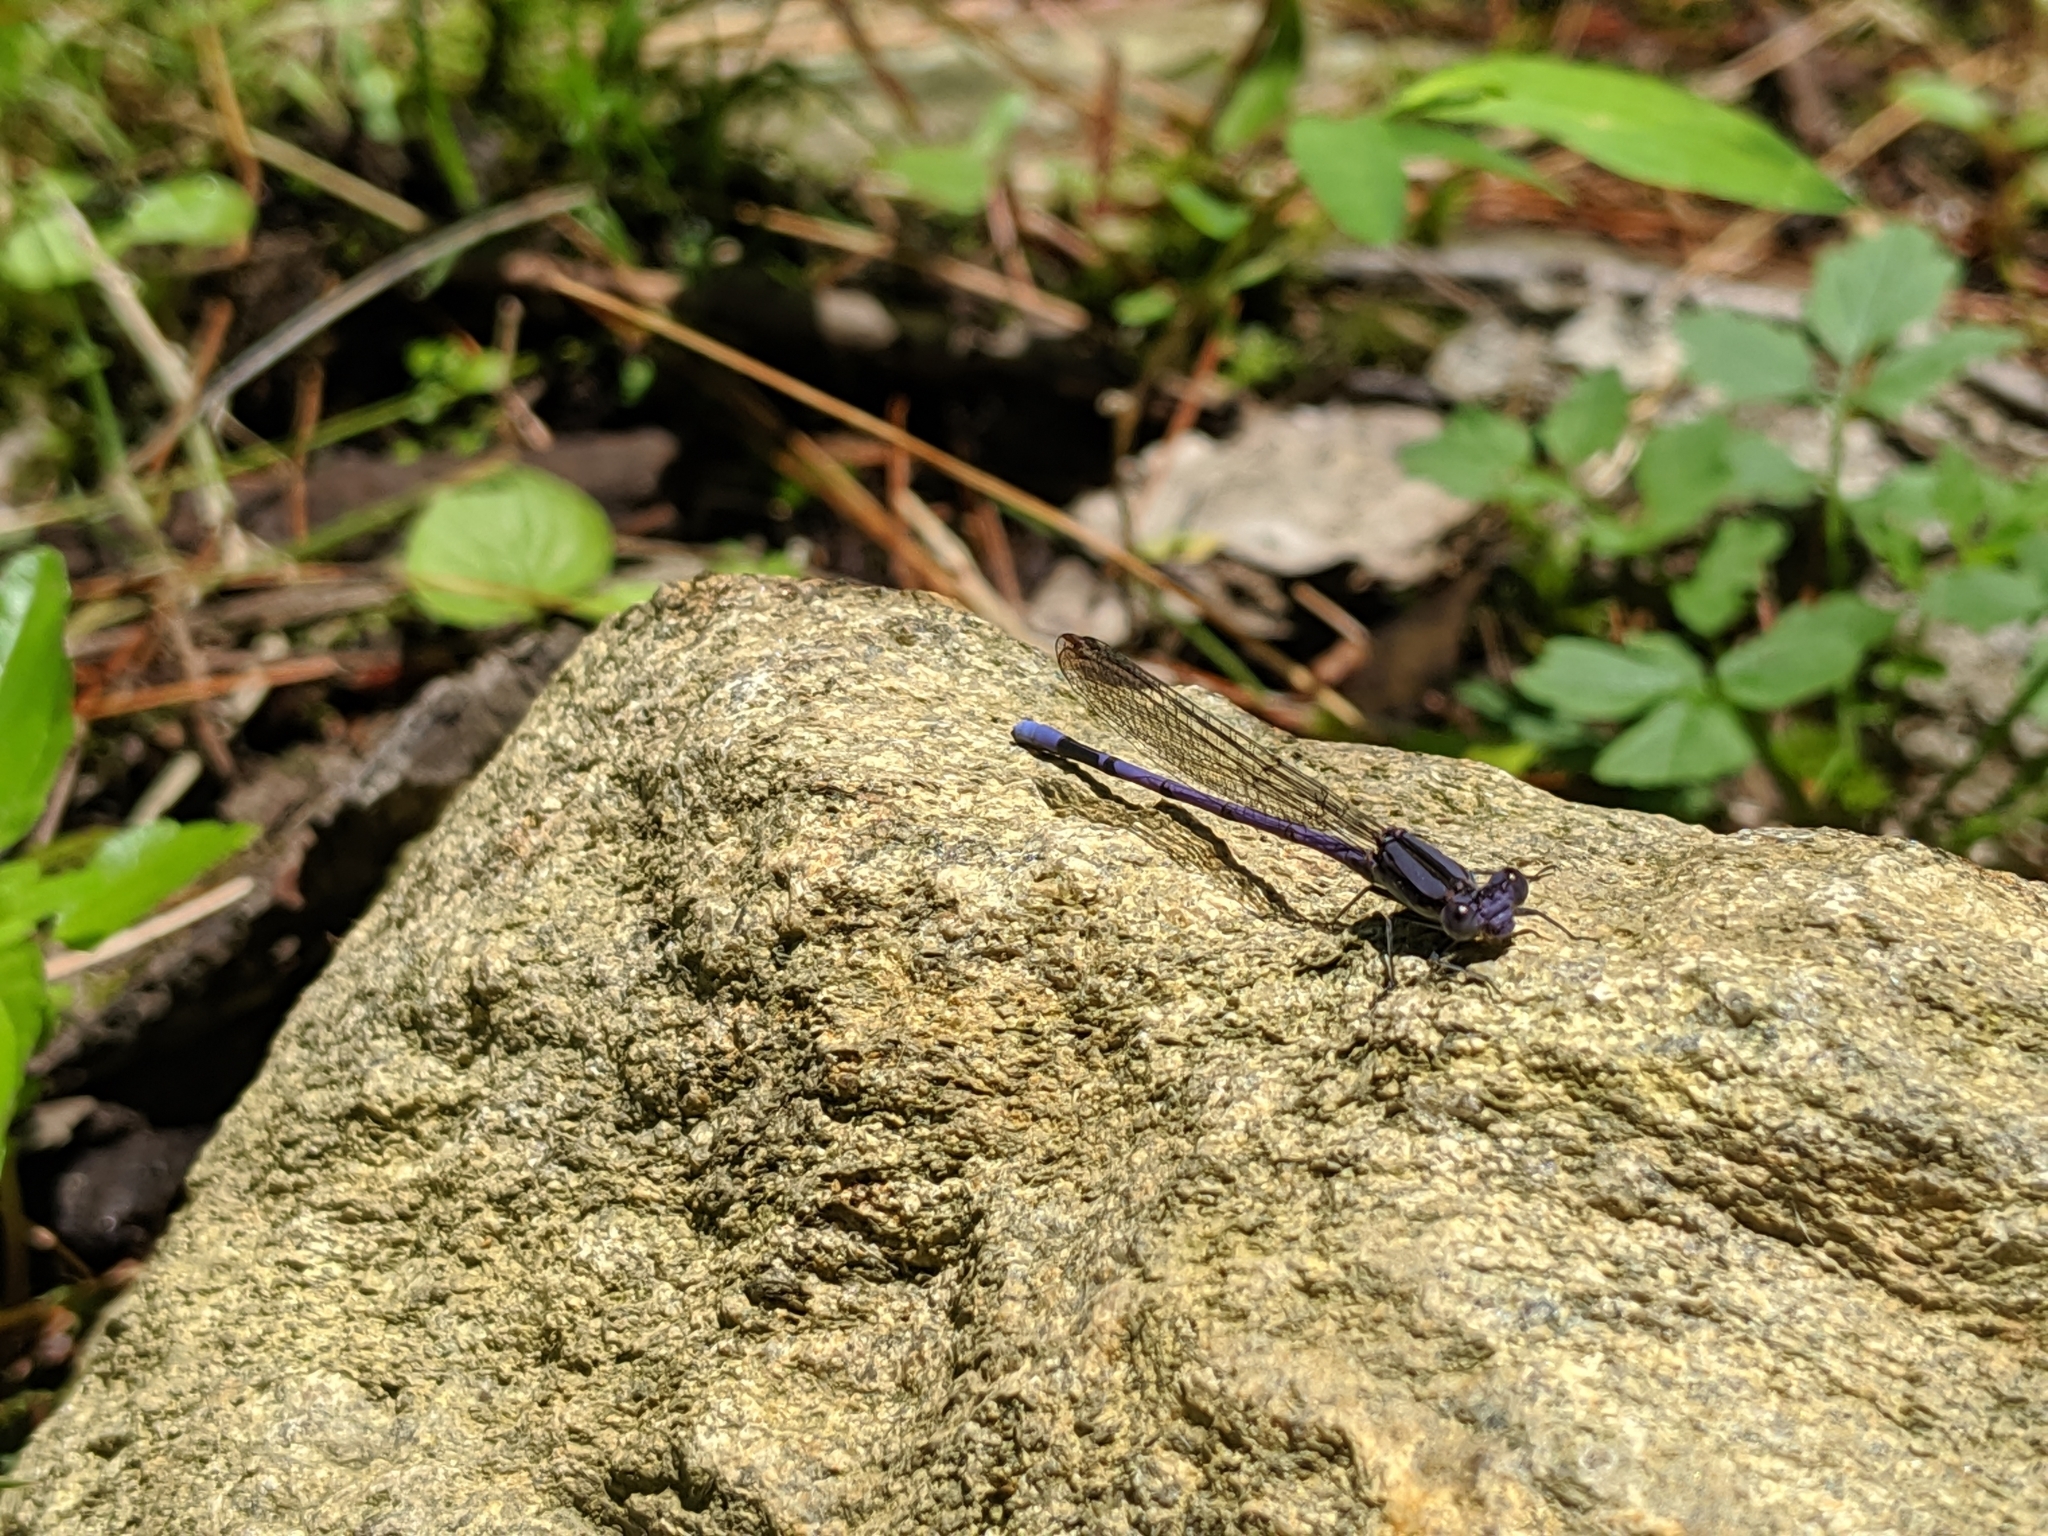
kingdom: Animalia
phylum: Arthropoda
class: Insecta
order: Odonata
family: Coenagrionidae
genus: Argia
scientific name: Argia fumipennis
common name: Variable dancer
